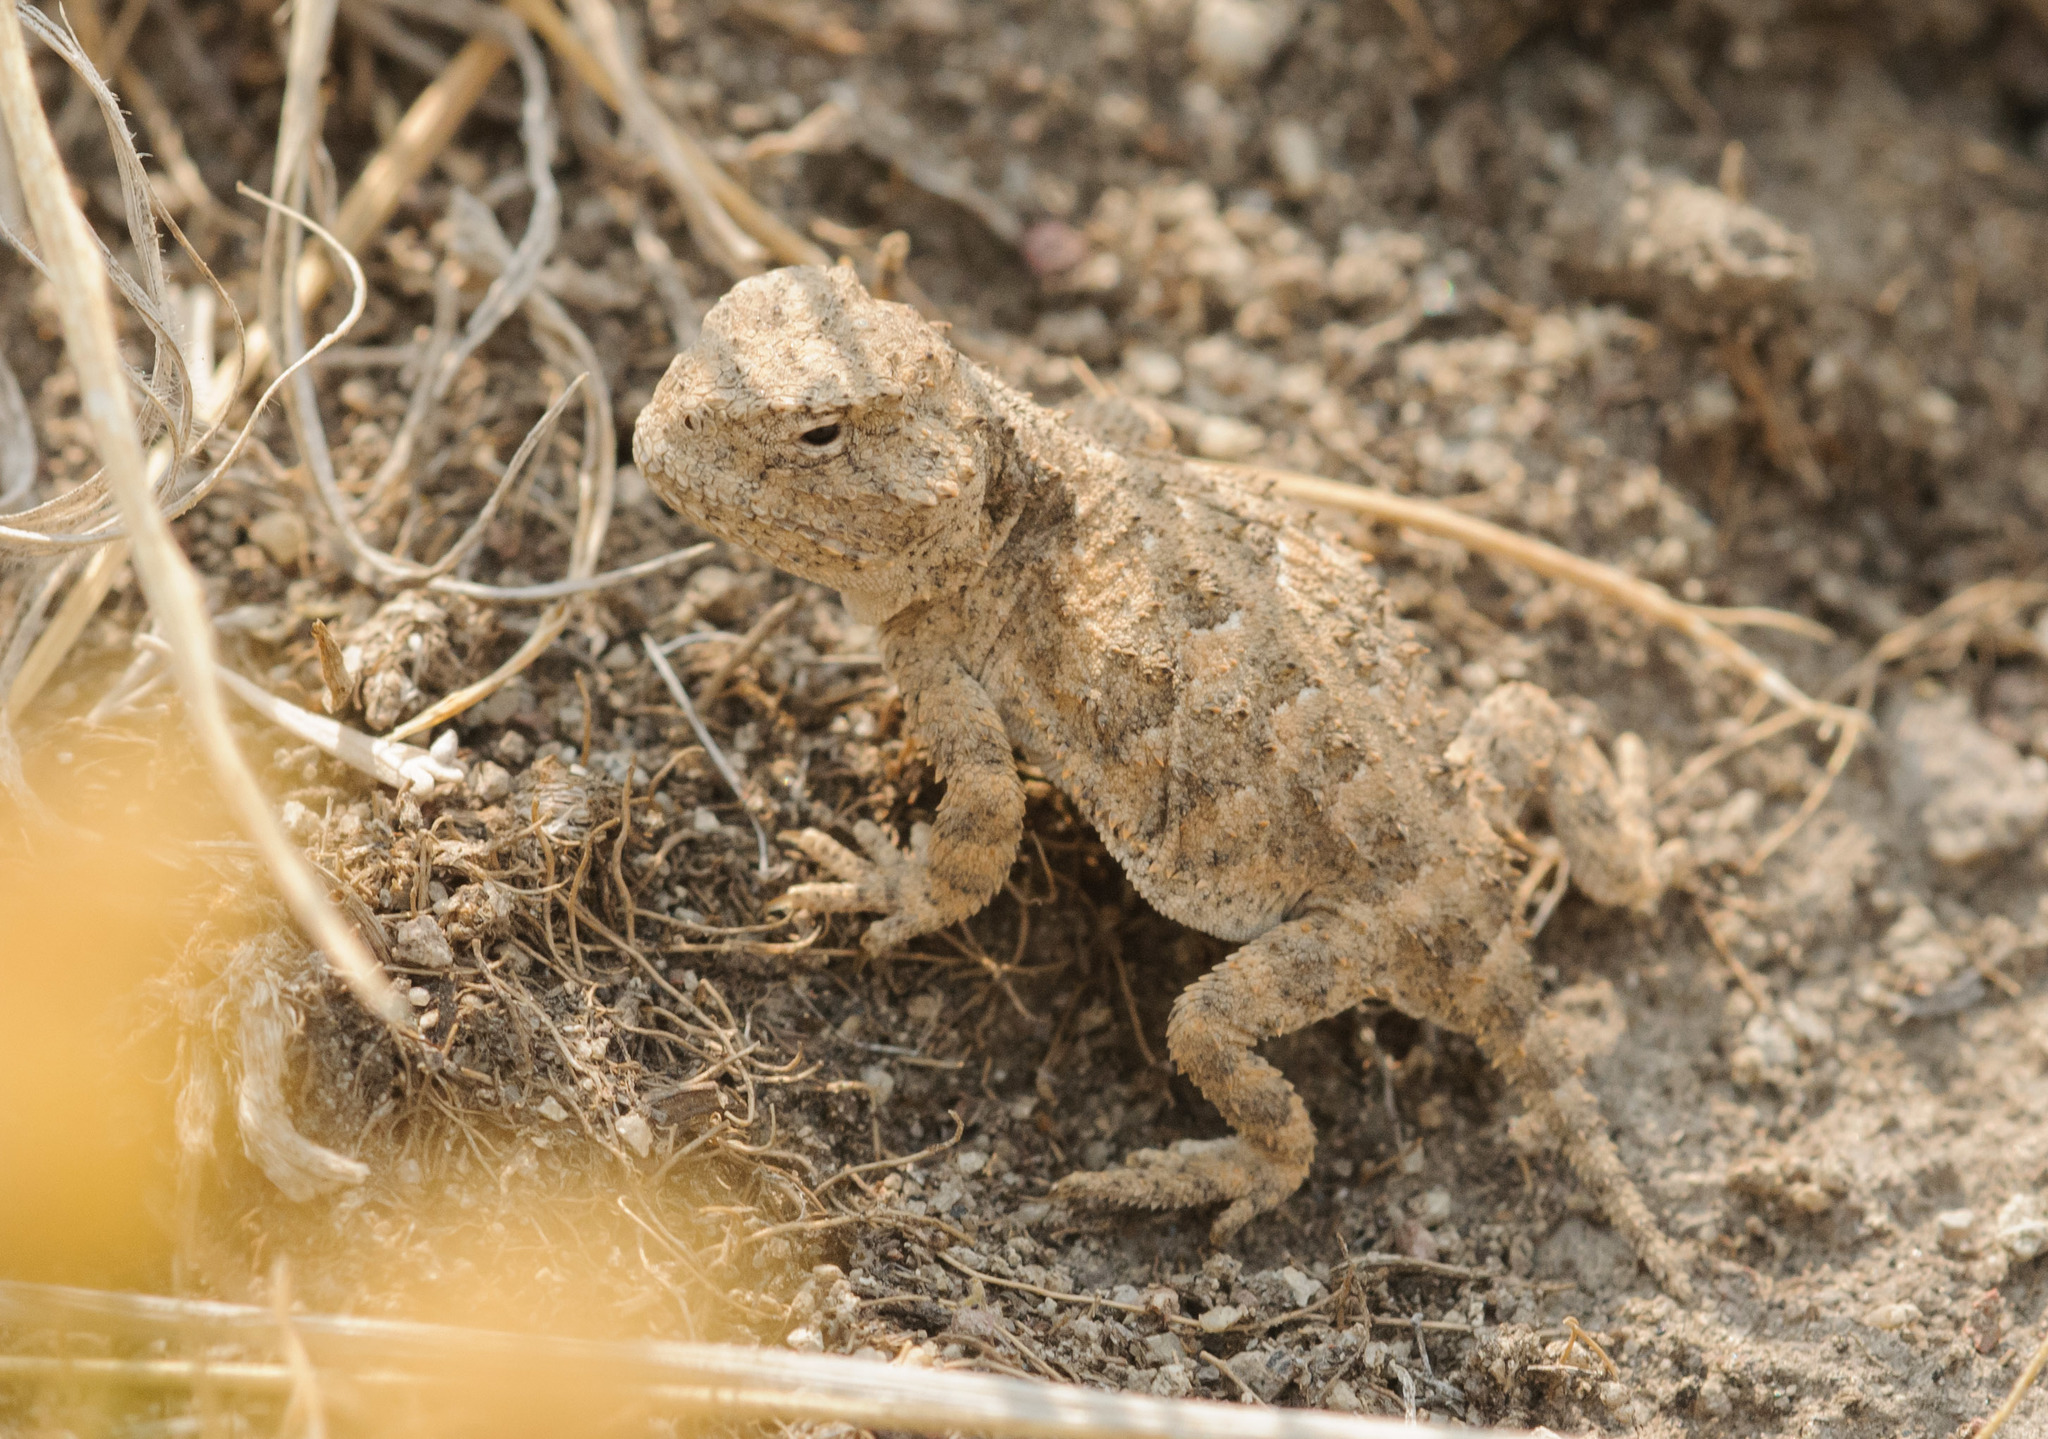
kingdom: Animalia
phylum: Chordata
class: Squamata
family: Phrynosomatidae
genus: Phrynosoma
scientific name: Phrynosoma hernandesi
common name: Greater short-horned lizard
